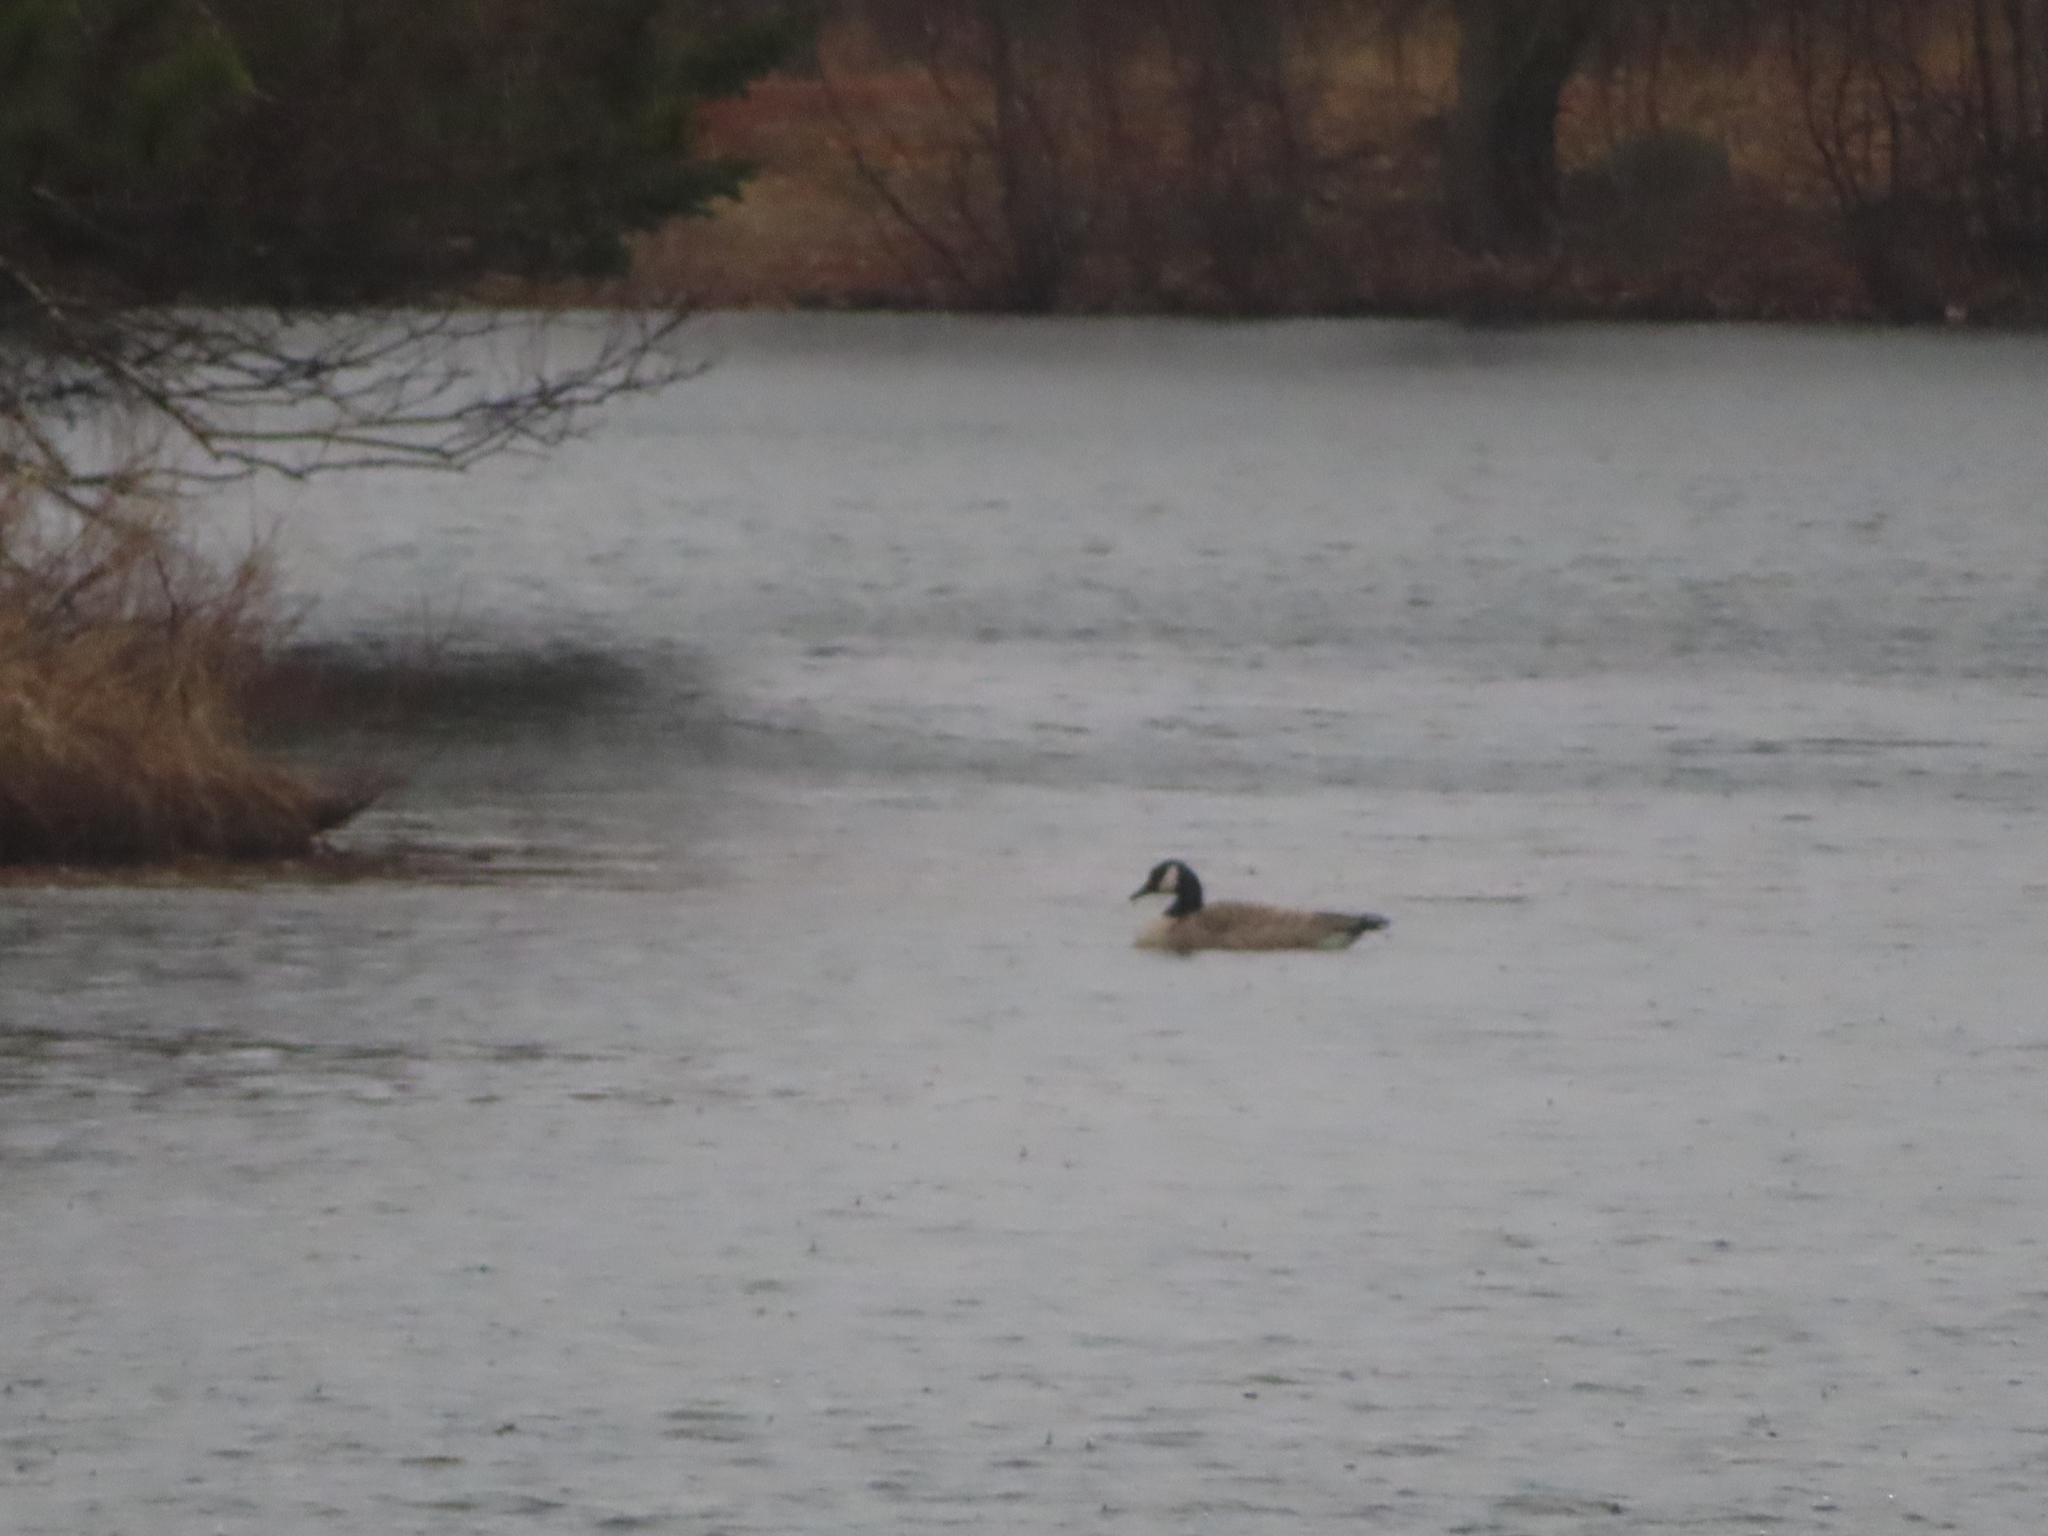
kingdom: Animalia
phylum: Chordata
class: Aves
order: Anseriformes
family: Anatidae
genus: Branta
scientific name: Branta canadensis
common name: Canada goose
